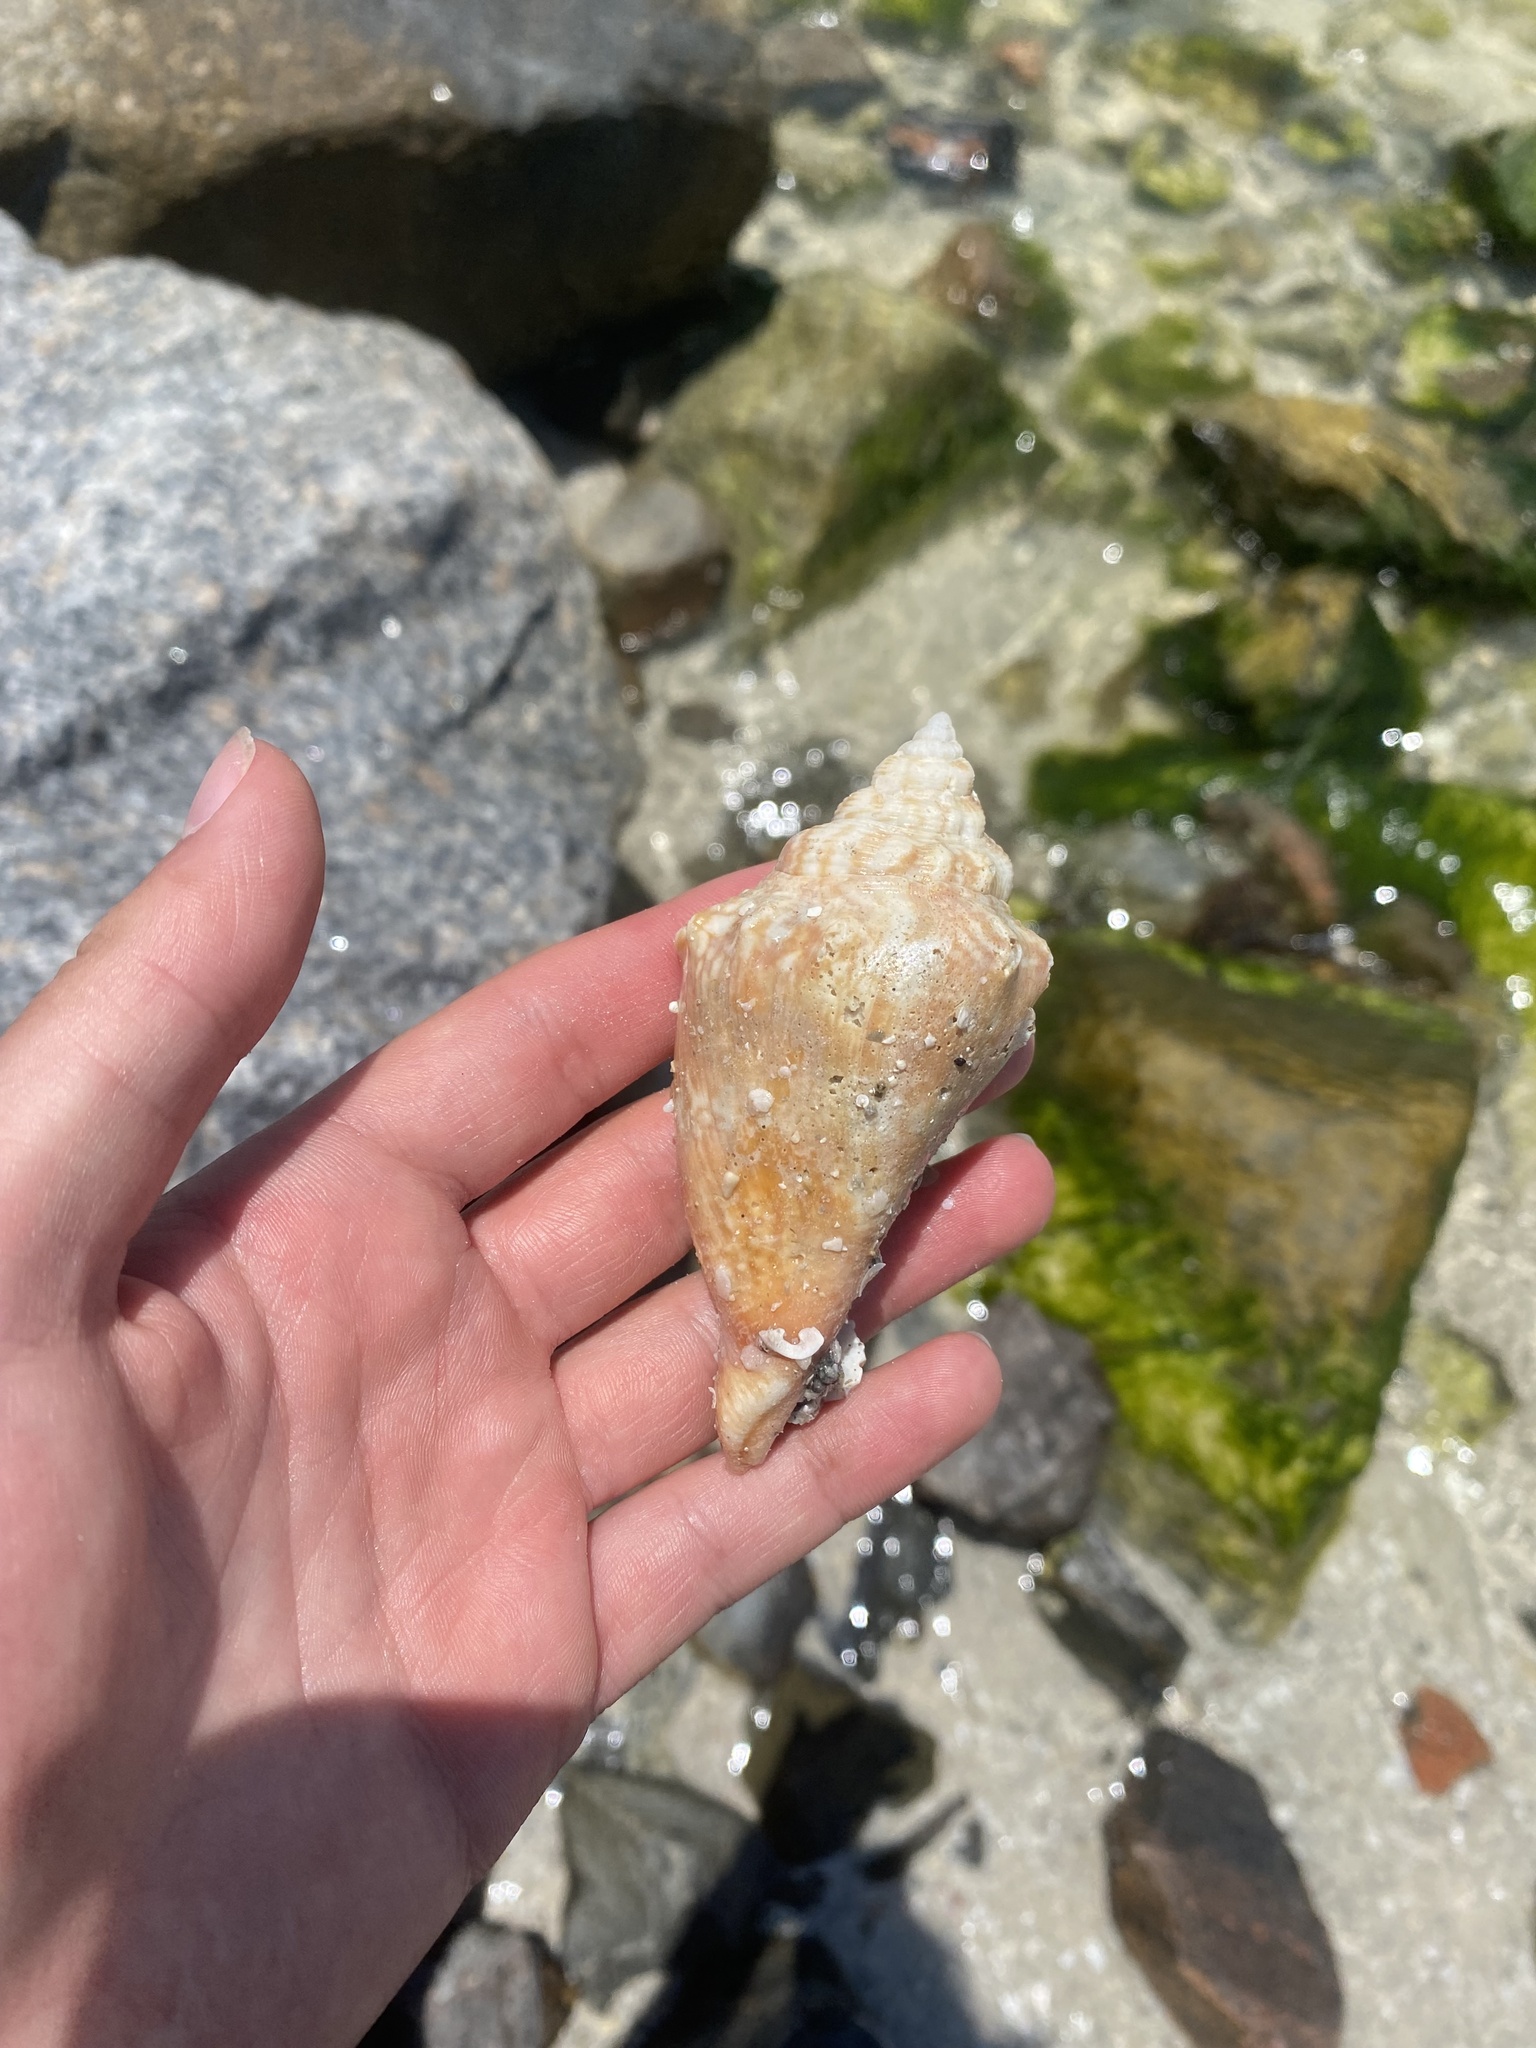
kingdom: Animalia
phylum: Mollusca
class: Gastropoda
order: Littorinimorpha
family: Strombidae
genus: Strombus
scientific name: Strombus alatus
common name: Florida fighting conch
